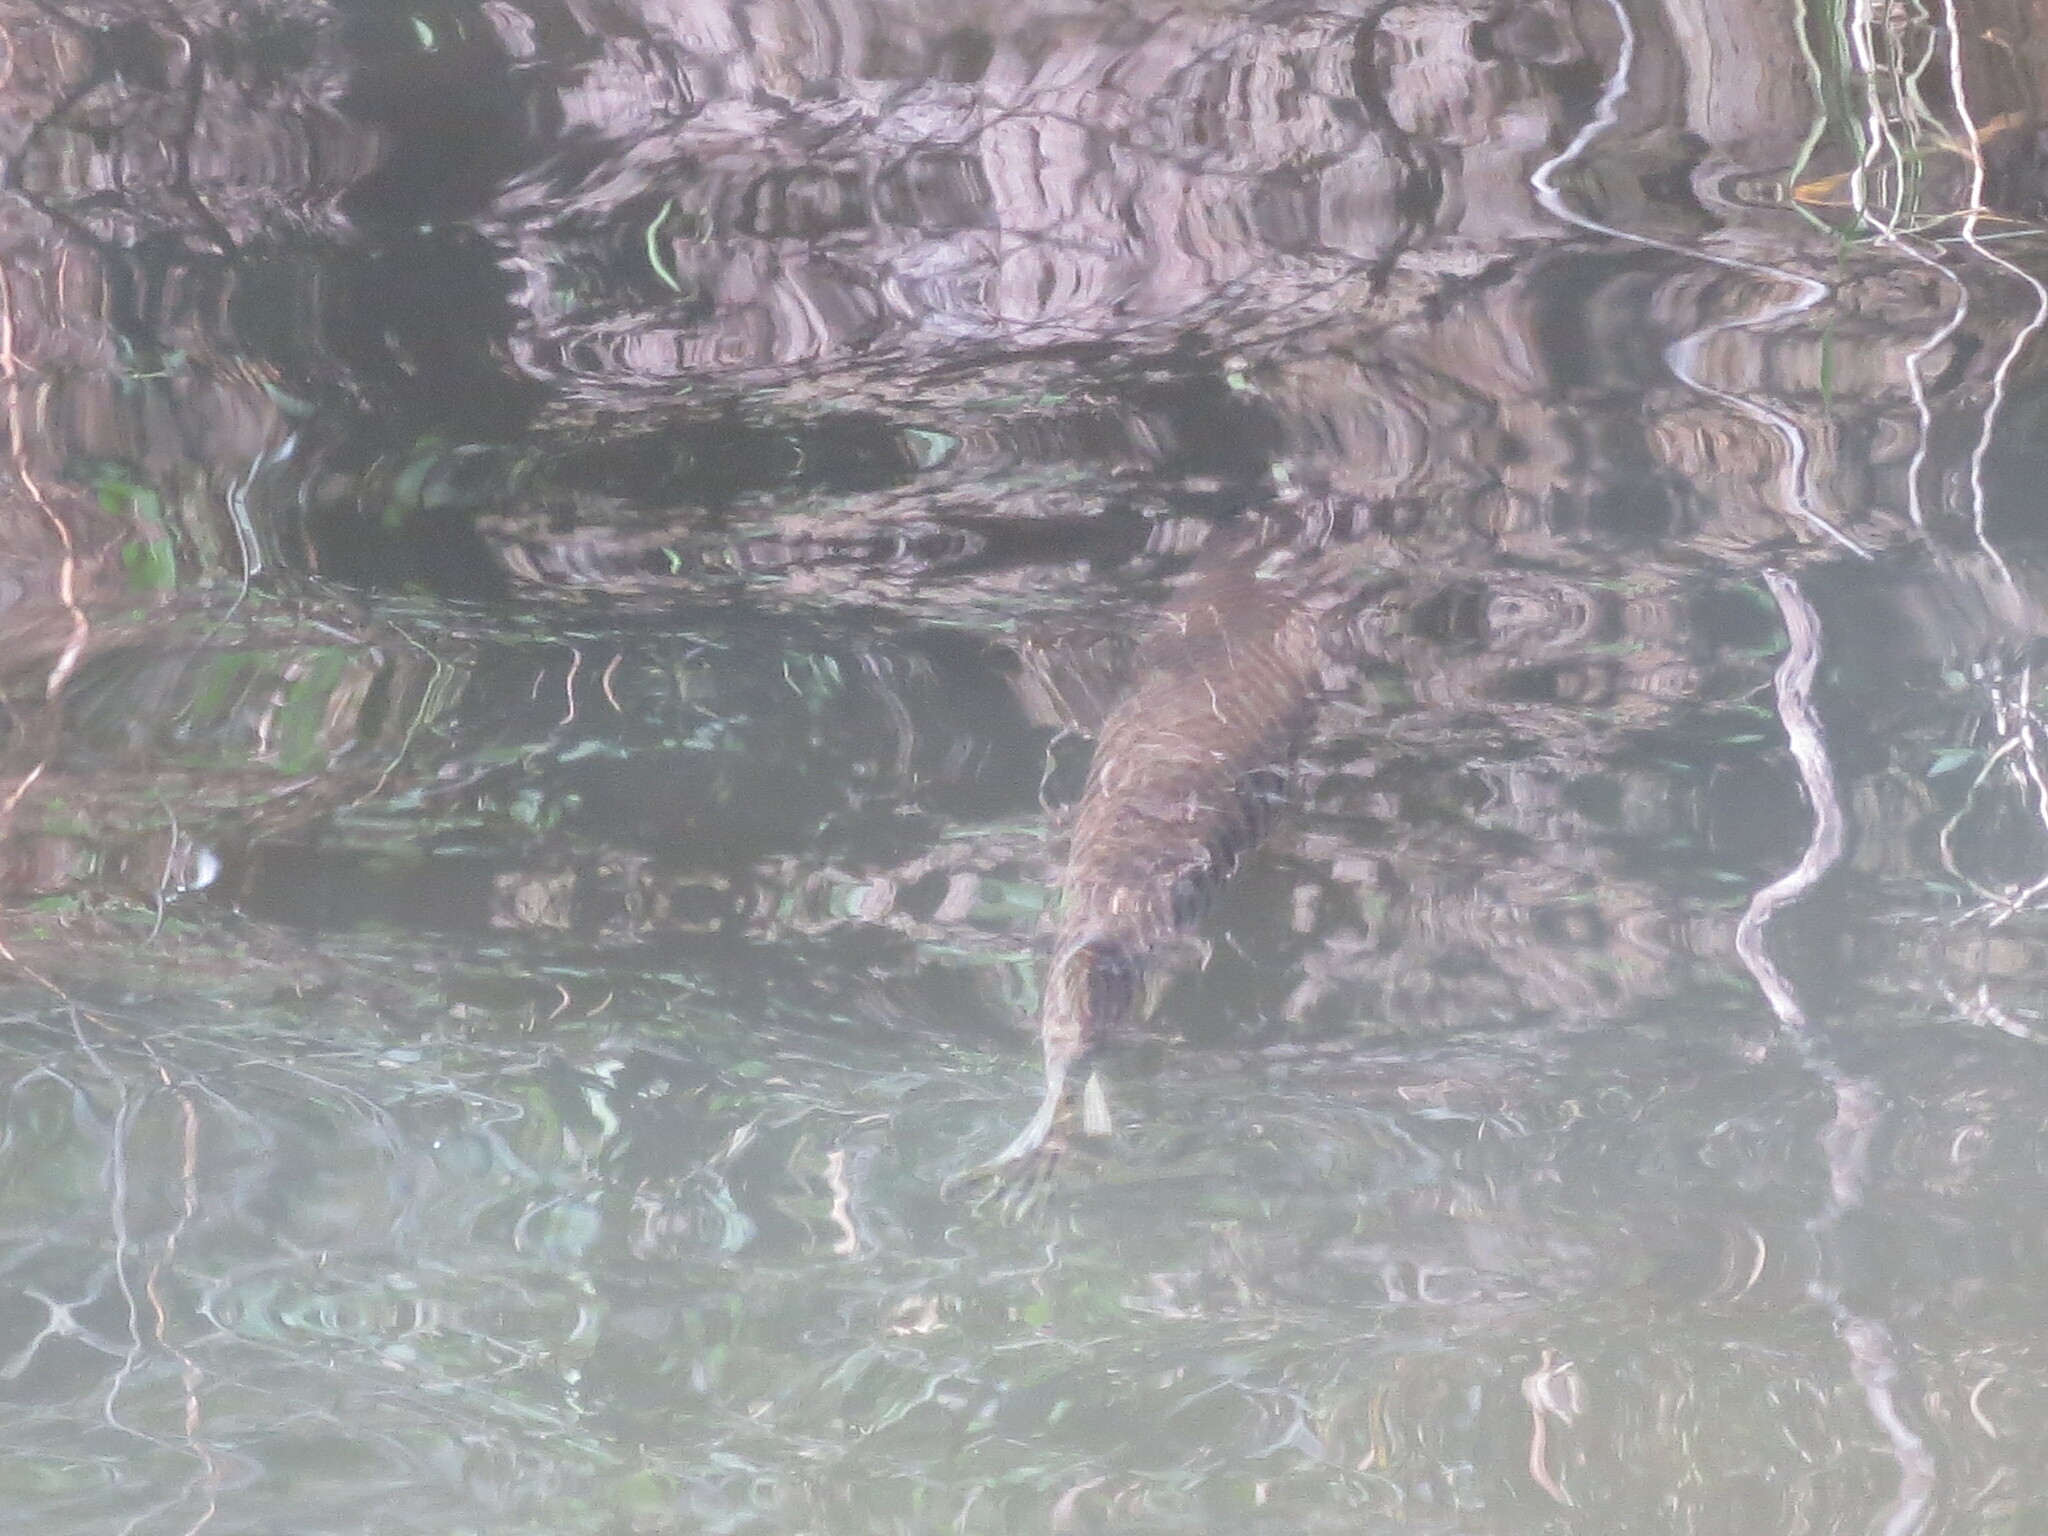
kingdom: Animalia
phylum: Chordata
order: Lepisosteiformes
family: Lepisosteidae
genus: Lepisosteus
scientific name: Lepisosteus platyrhincus
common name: Florida gar
